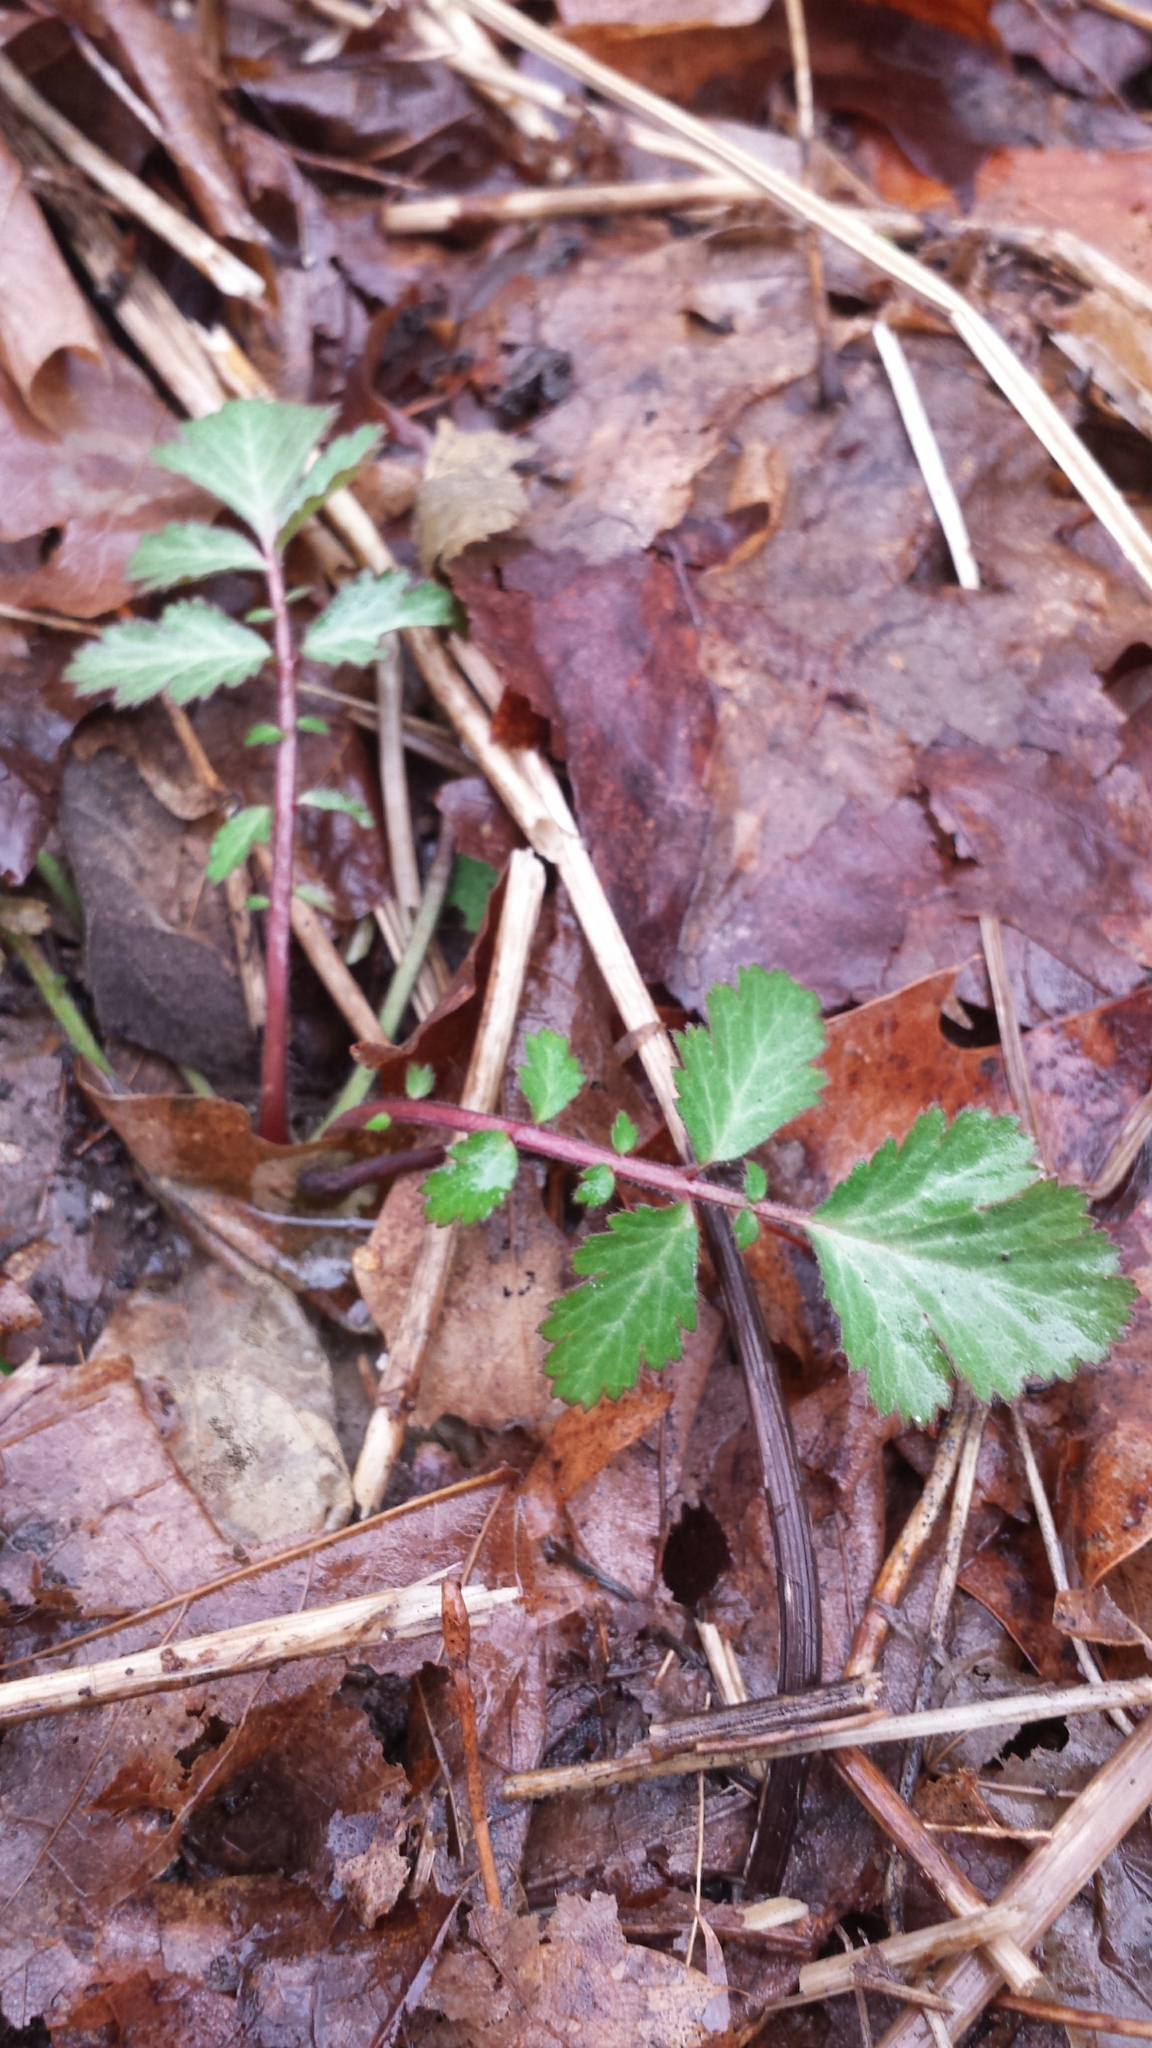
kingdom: Plantae
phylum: Tracheophyta
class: Magnoliopsida
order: Rosales
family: Rosaceae
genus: Geum
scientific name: Geum canadense
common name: White avens
